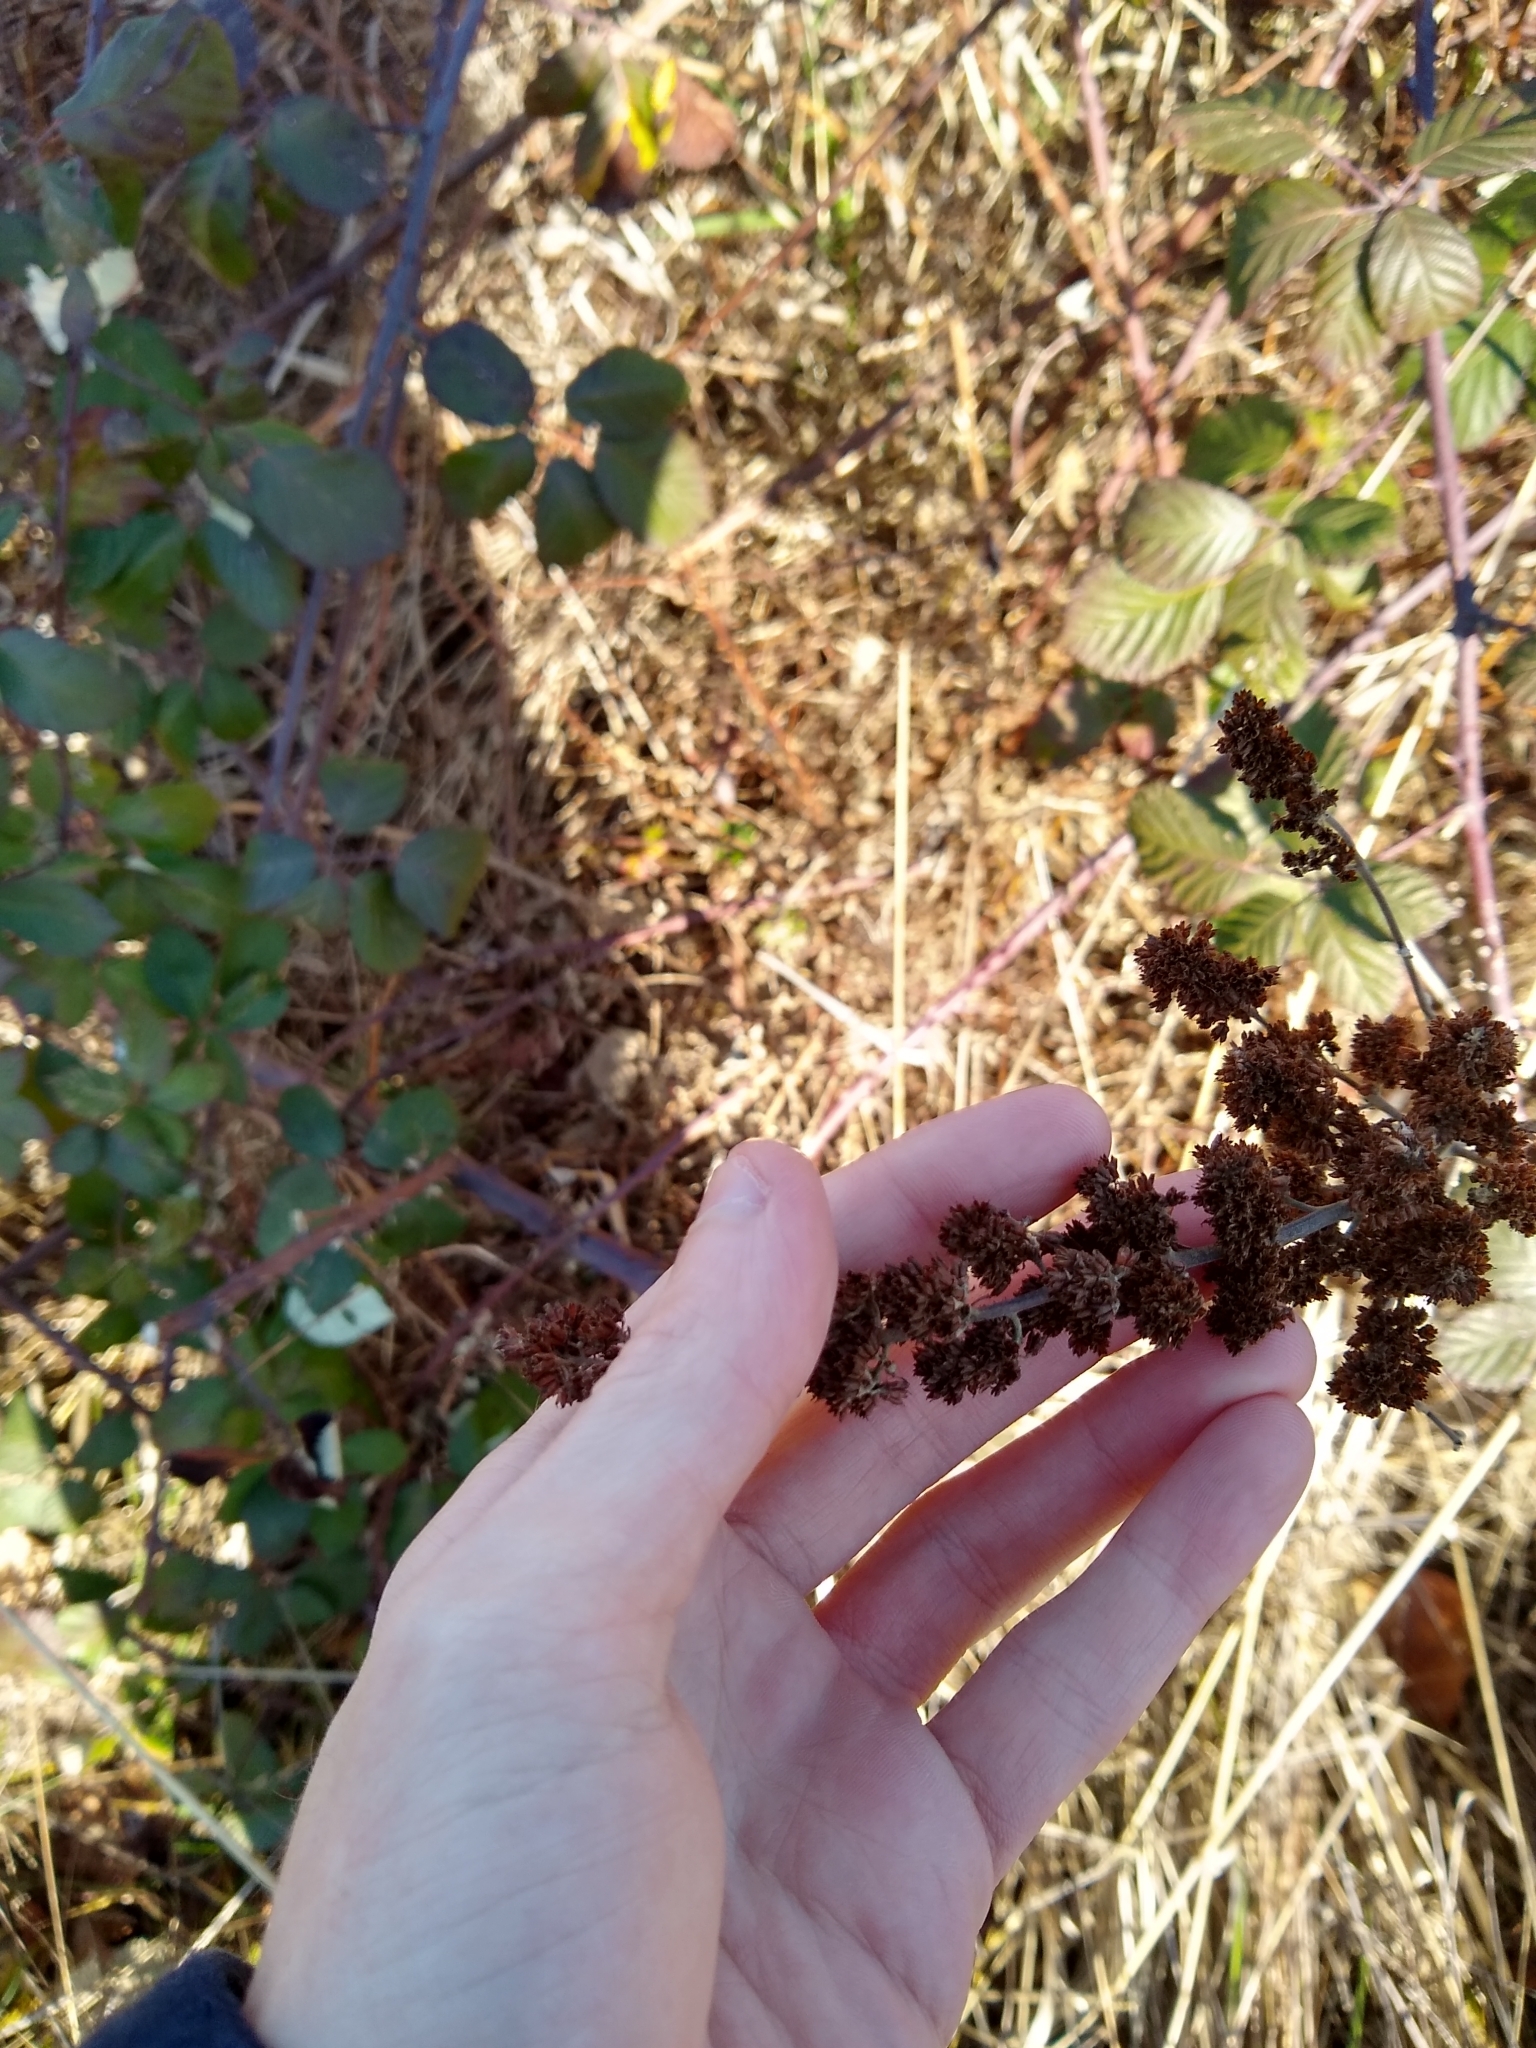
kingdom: Plantae
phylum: Tracheophyta
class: Magnoliopsida
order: Rosales
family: Rosaceae
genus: Spiraea
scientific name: Spiraea douglasii
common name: Steeplebush
